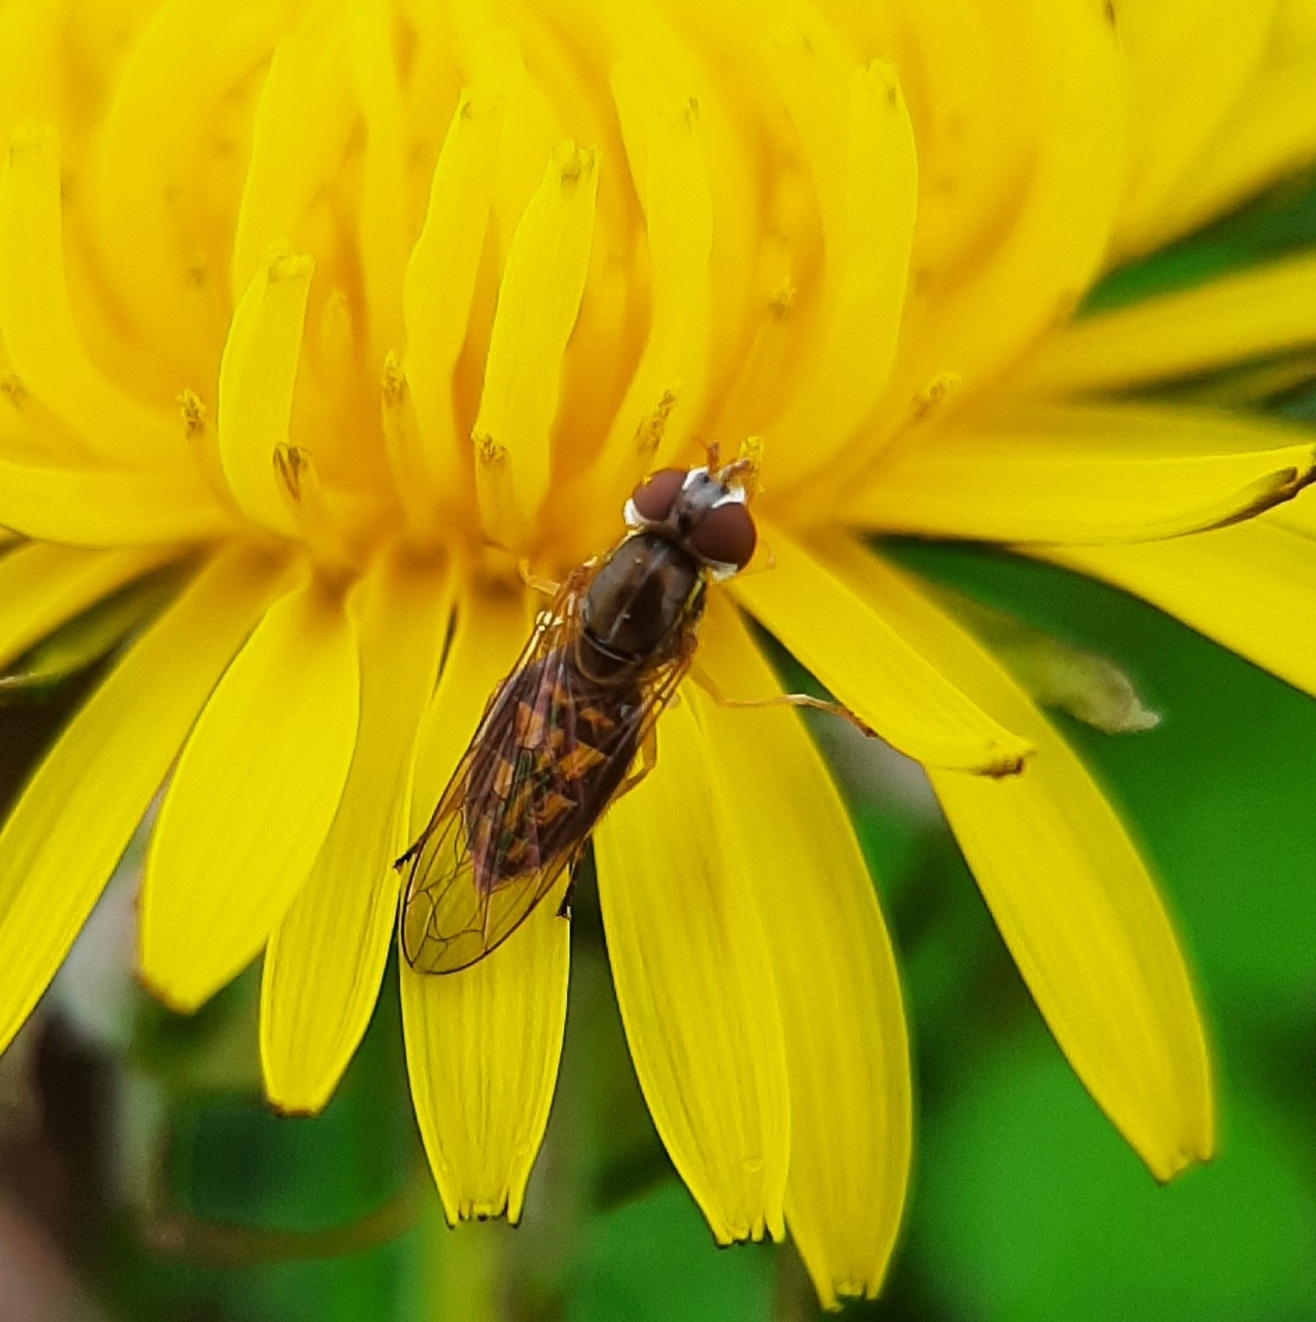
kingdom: Animalia
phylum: Arthropoda
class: Insecta
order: Diptera
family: Syrphidae
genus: Toxomerus
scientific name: Toxomerus marginatus
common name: Syrphid fly
